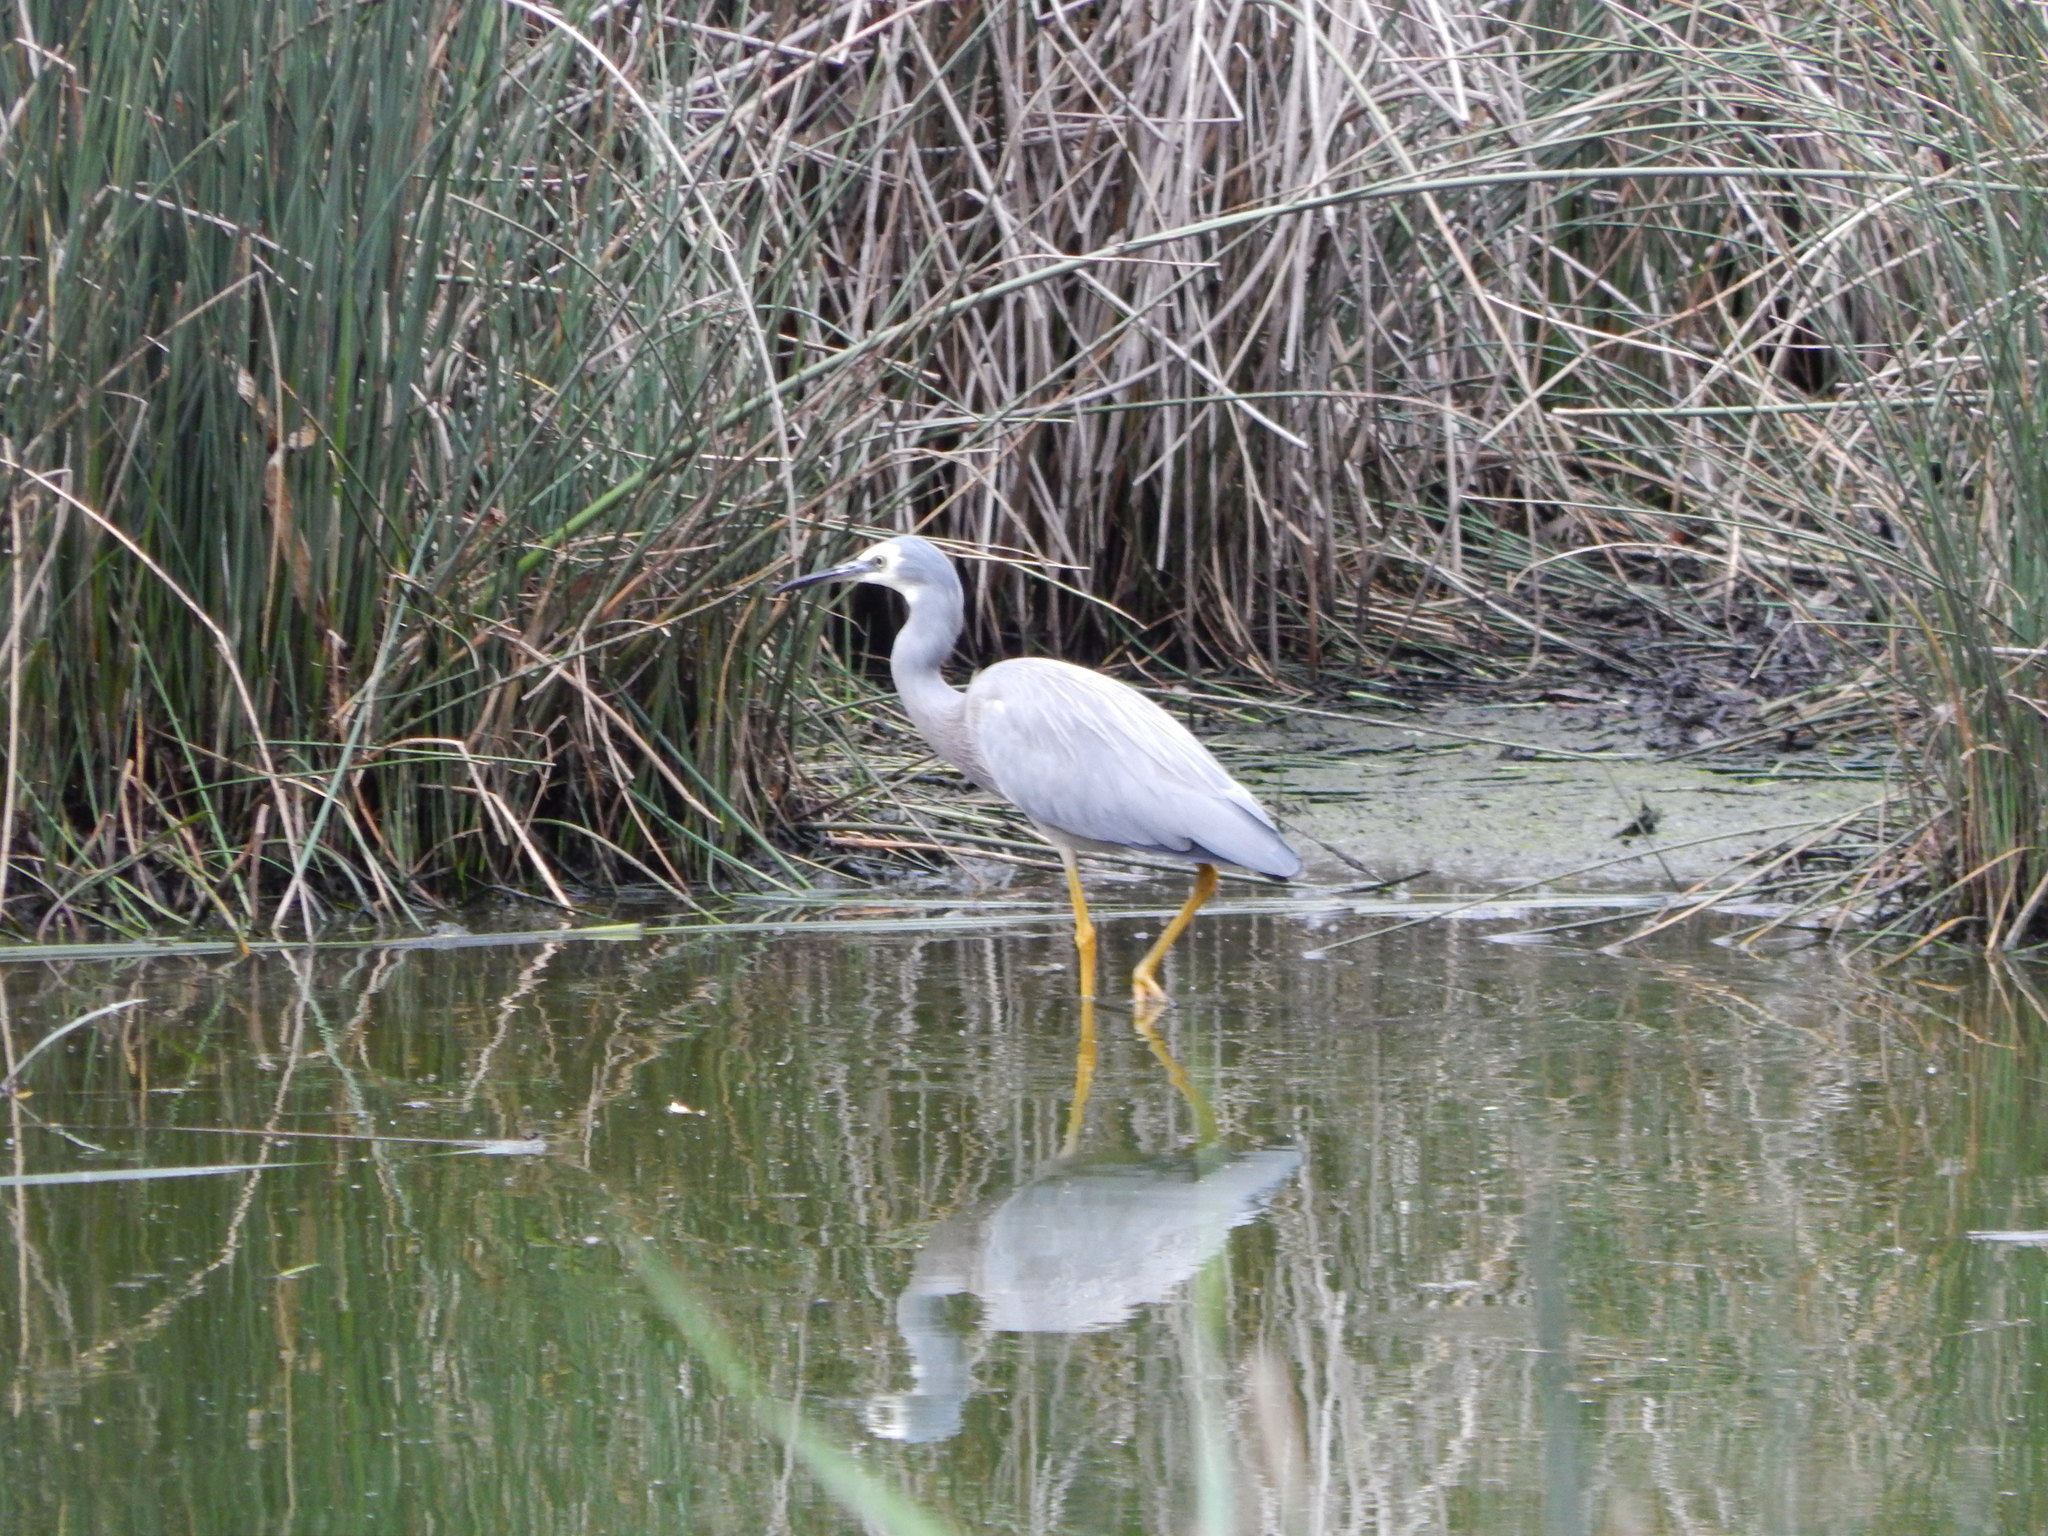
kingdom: Animalia
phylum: Chordata
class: Aves
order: Pelecaniformes
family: Ardeidae
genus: Egretta
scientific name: Egretta novaehollandiae
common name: White-faced heron
